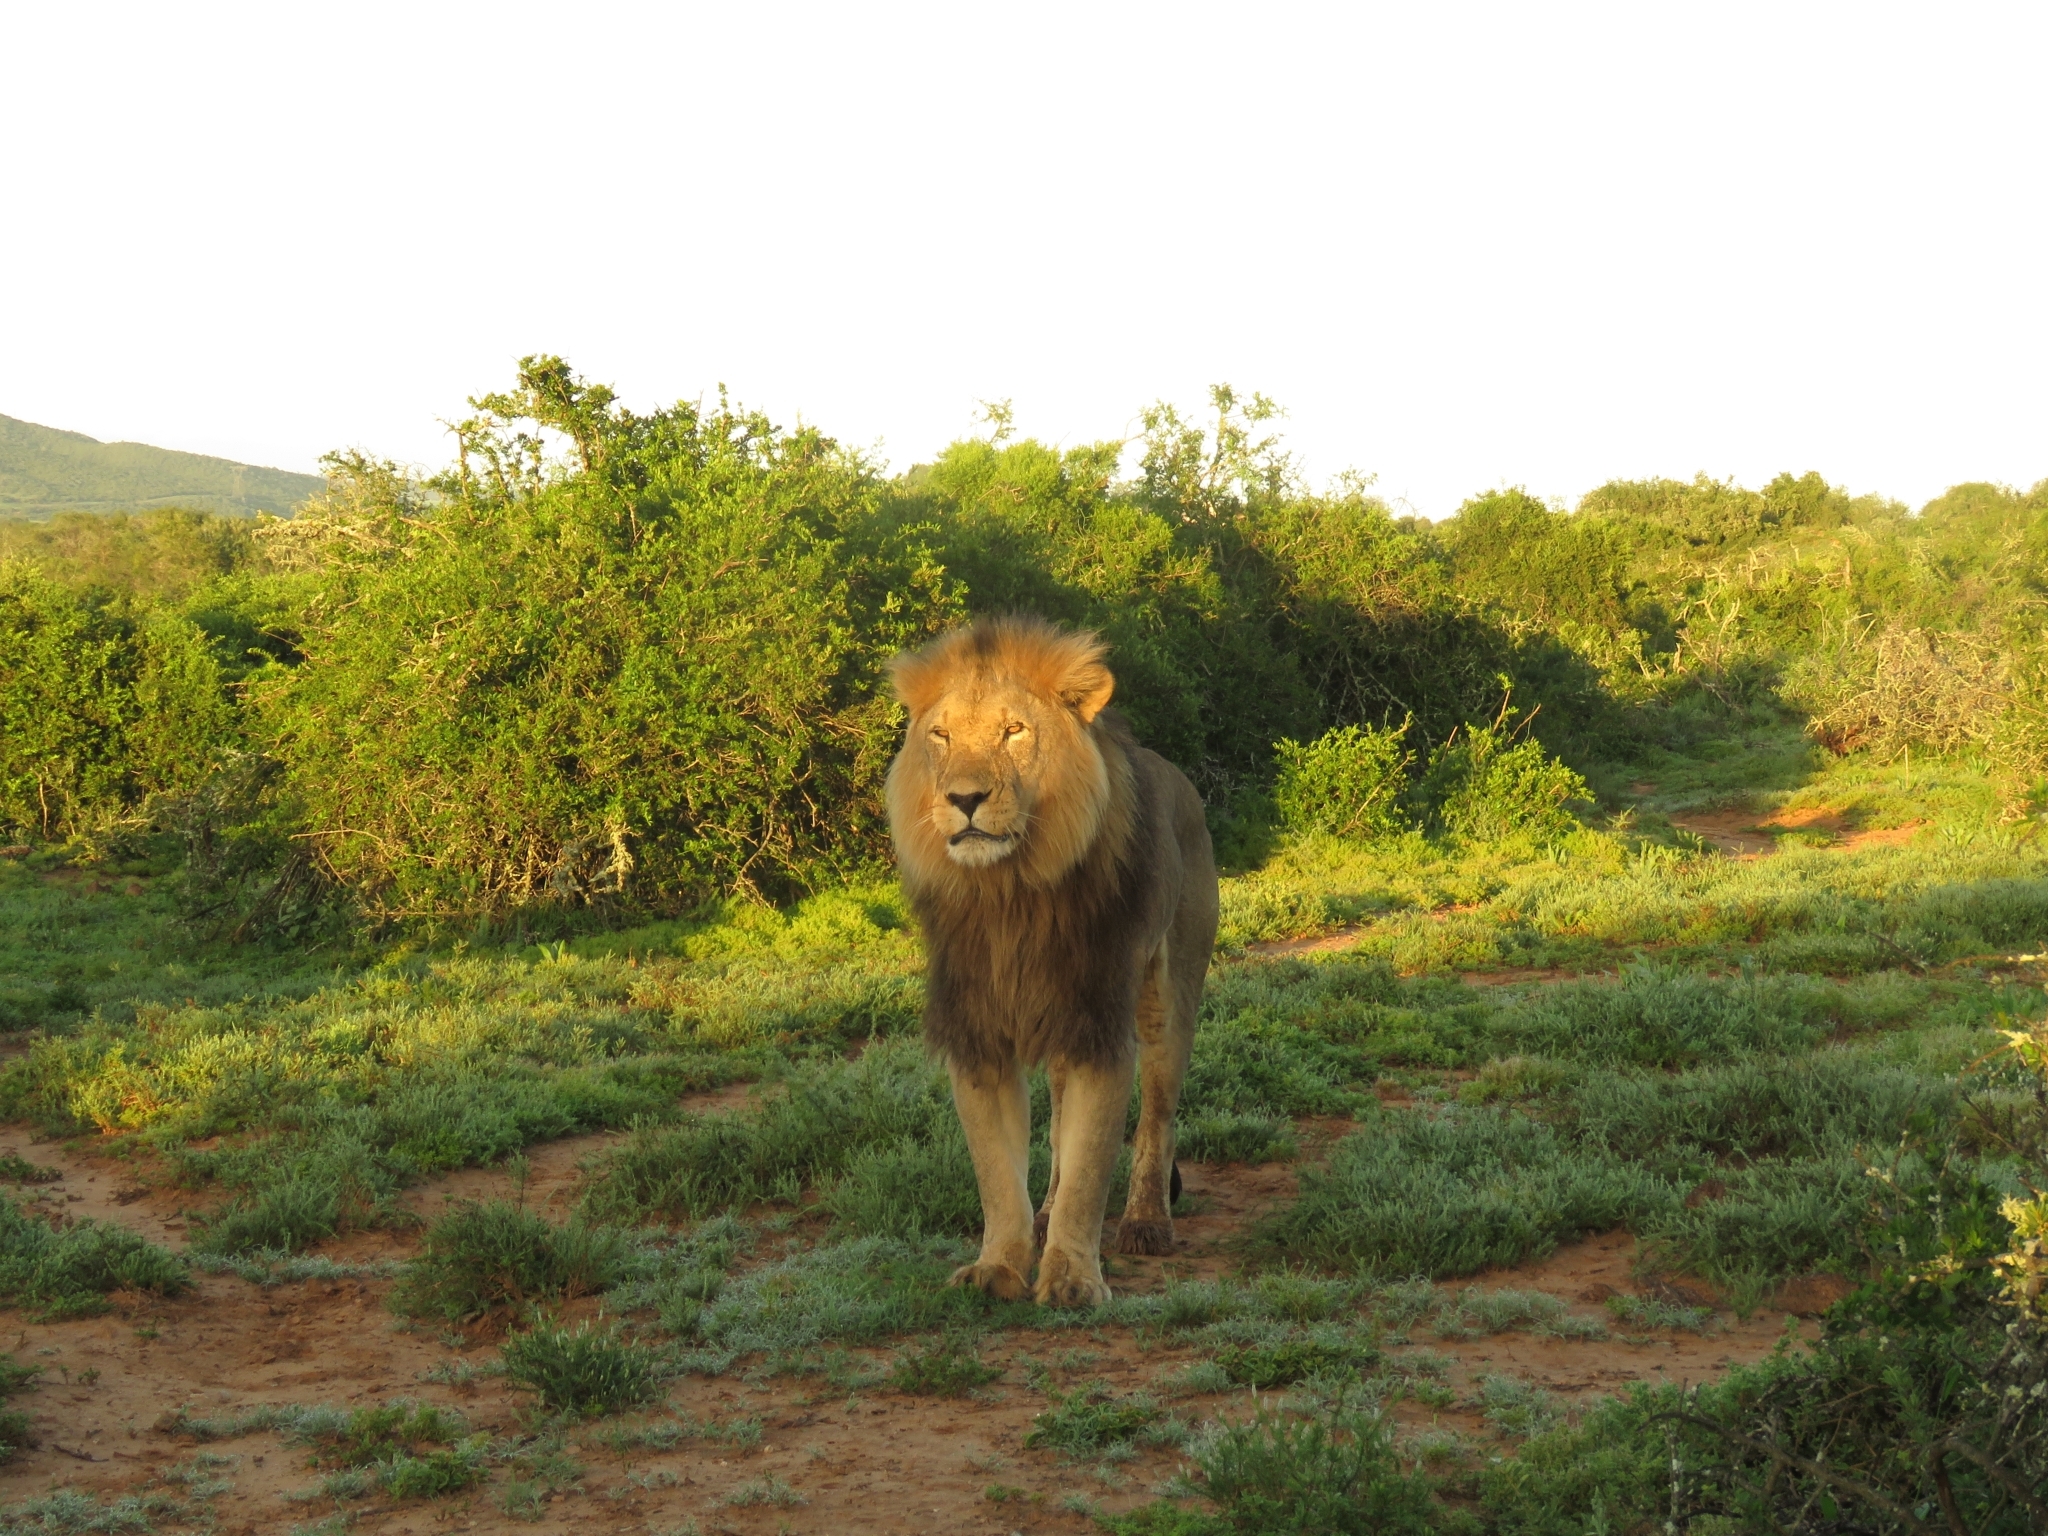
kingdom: Animalia
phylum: Chordata
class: Mammalia
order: Carnivora
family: Felidae
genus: Panthera
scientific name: Panthera leo
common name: Lion
